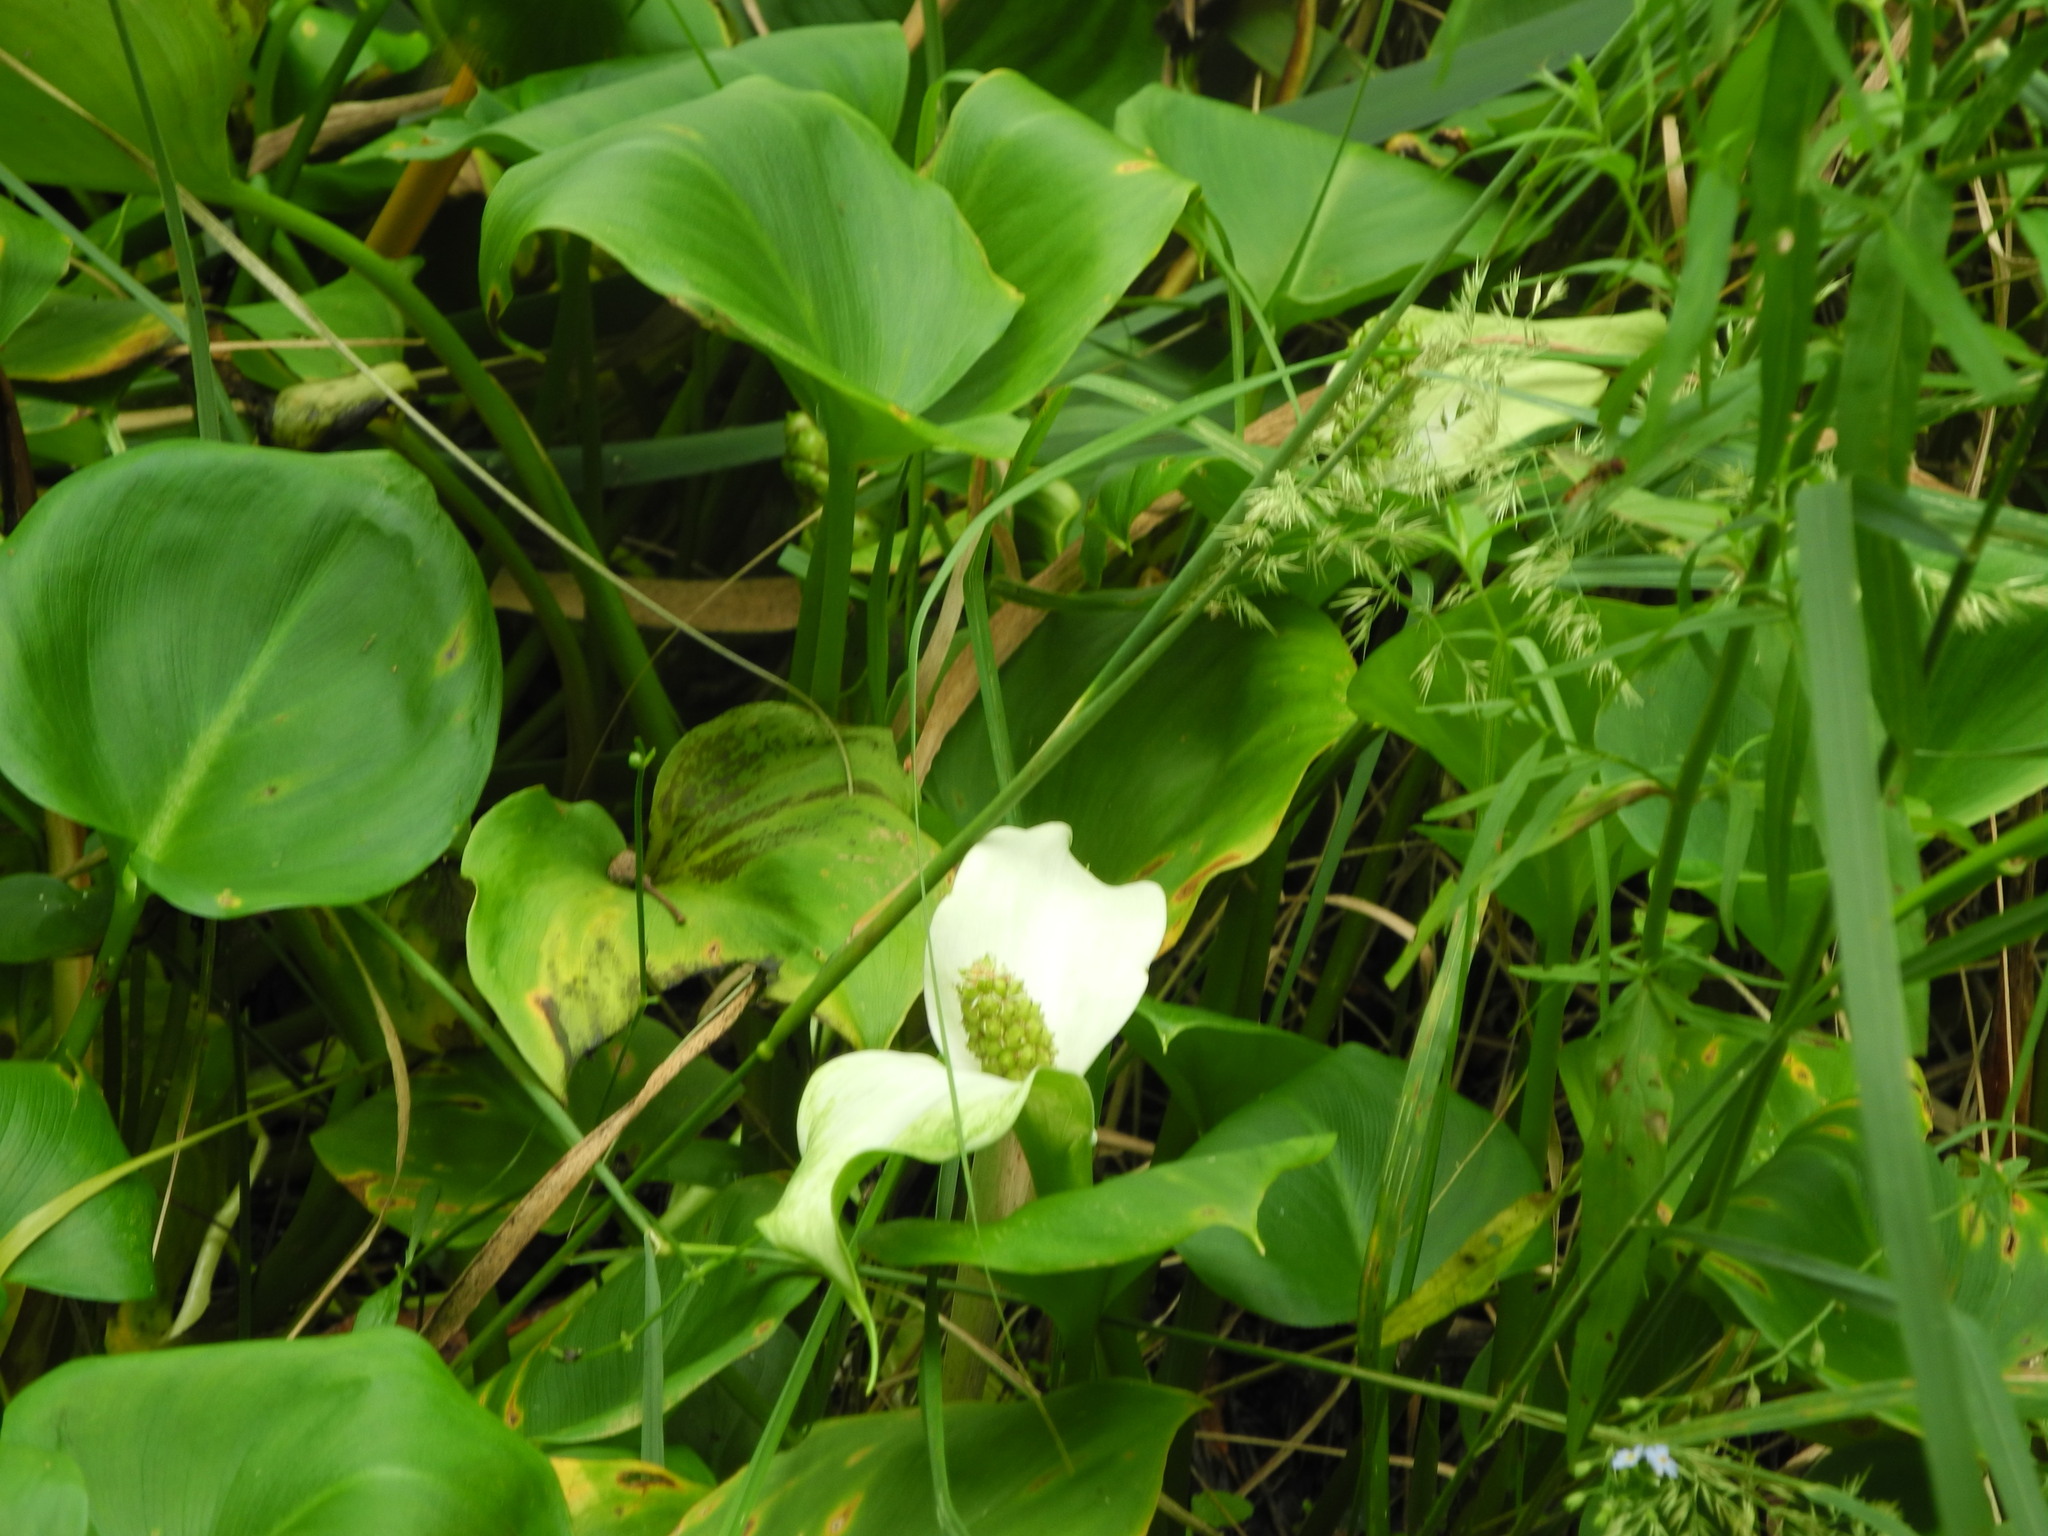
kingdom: Plantae
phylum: Tracheophyta
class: Liliopsida
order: Alismatales
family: Araceae
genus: Calla
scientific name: Calla palustris
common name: Bog arum
